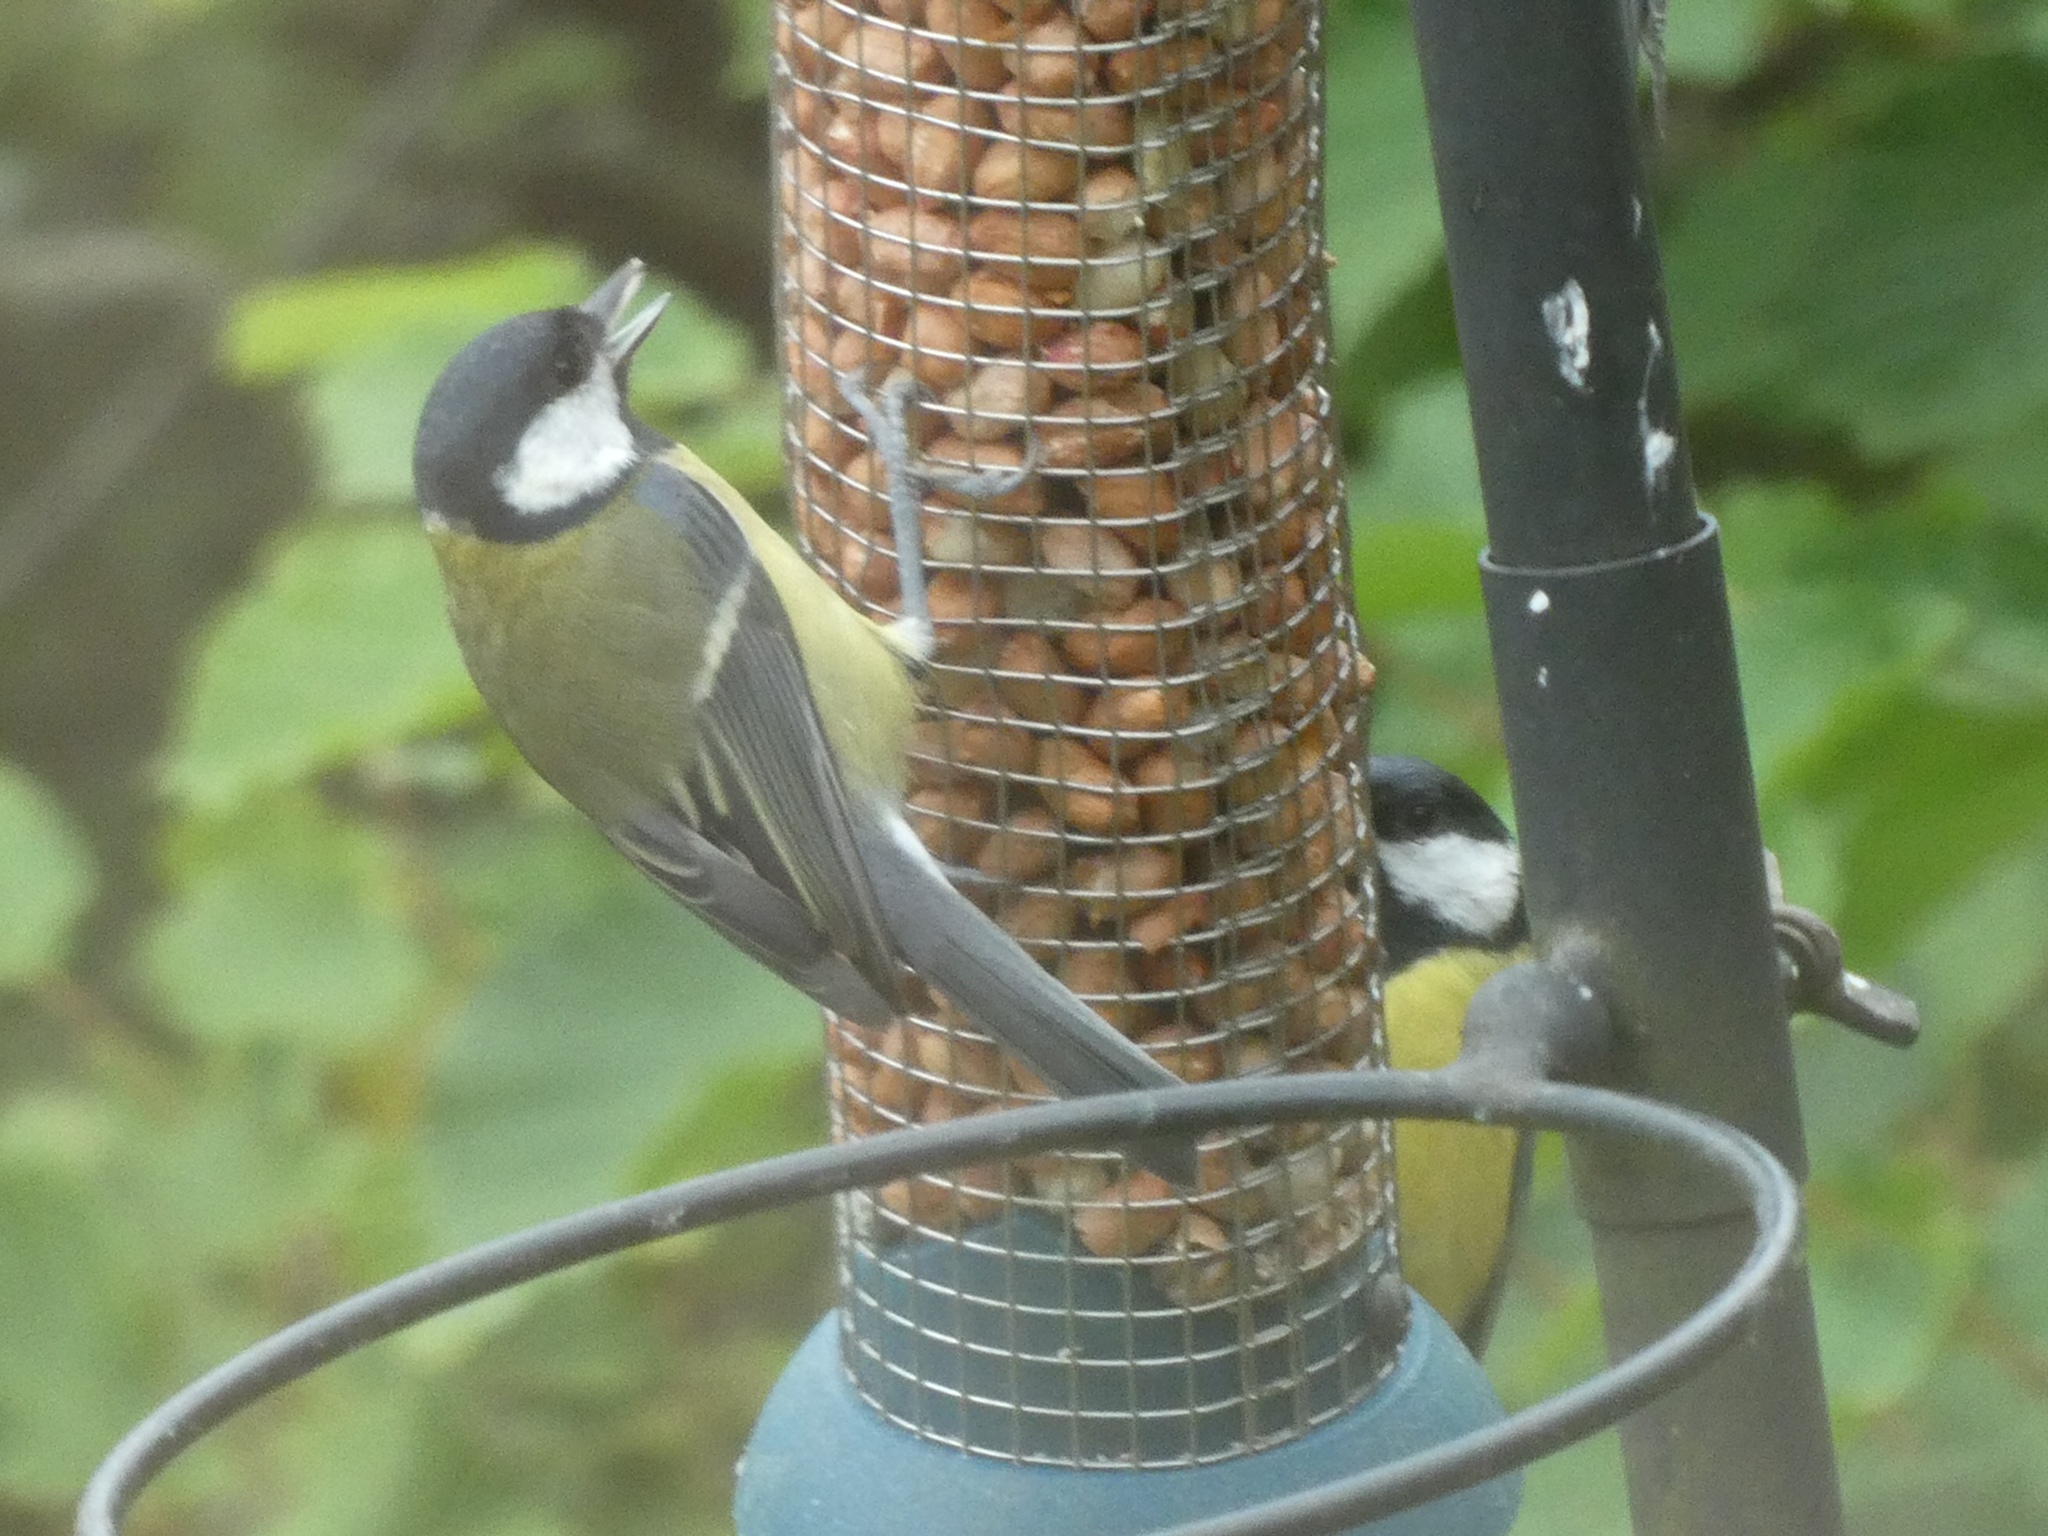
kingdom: Animalia
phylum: Chordata
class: Aves
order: Passeriformes
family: Paridae
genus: Parus
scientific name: Parus major
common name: Great tit
